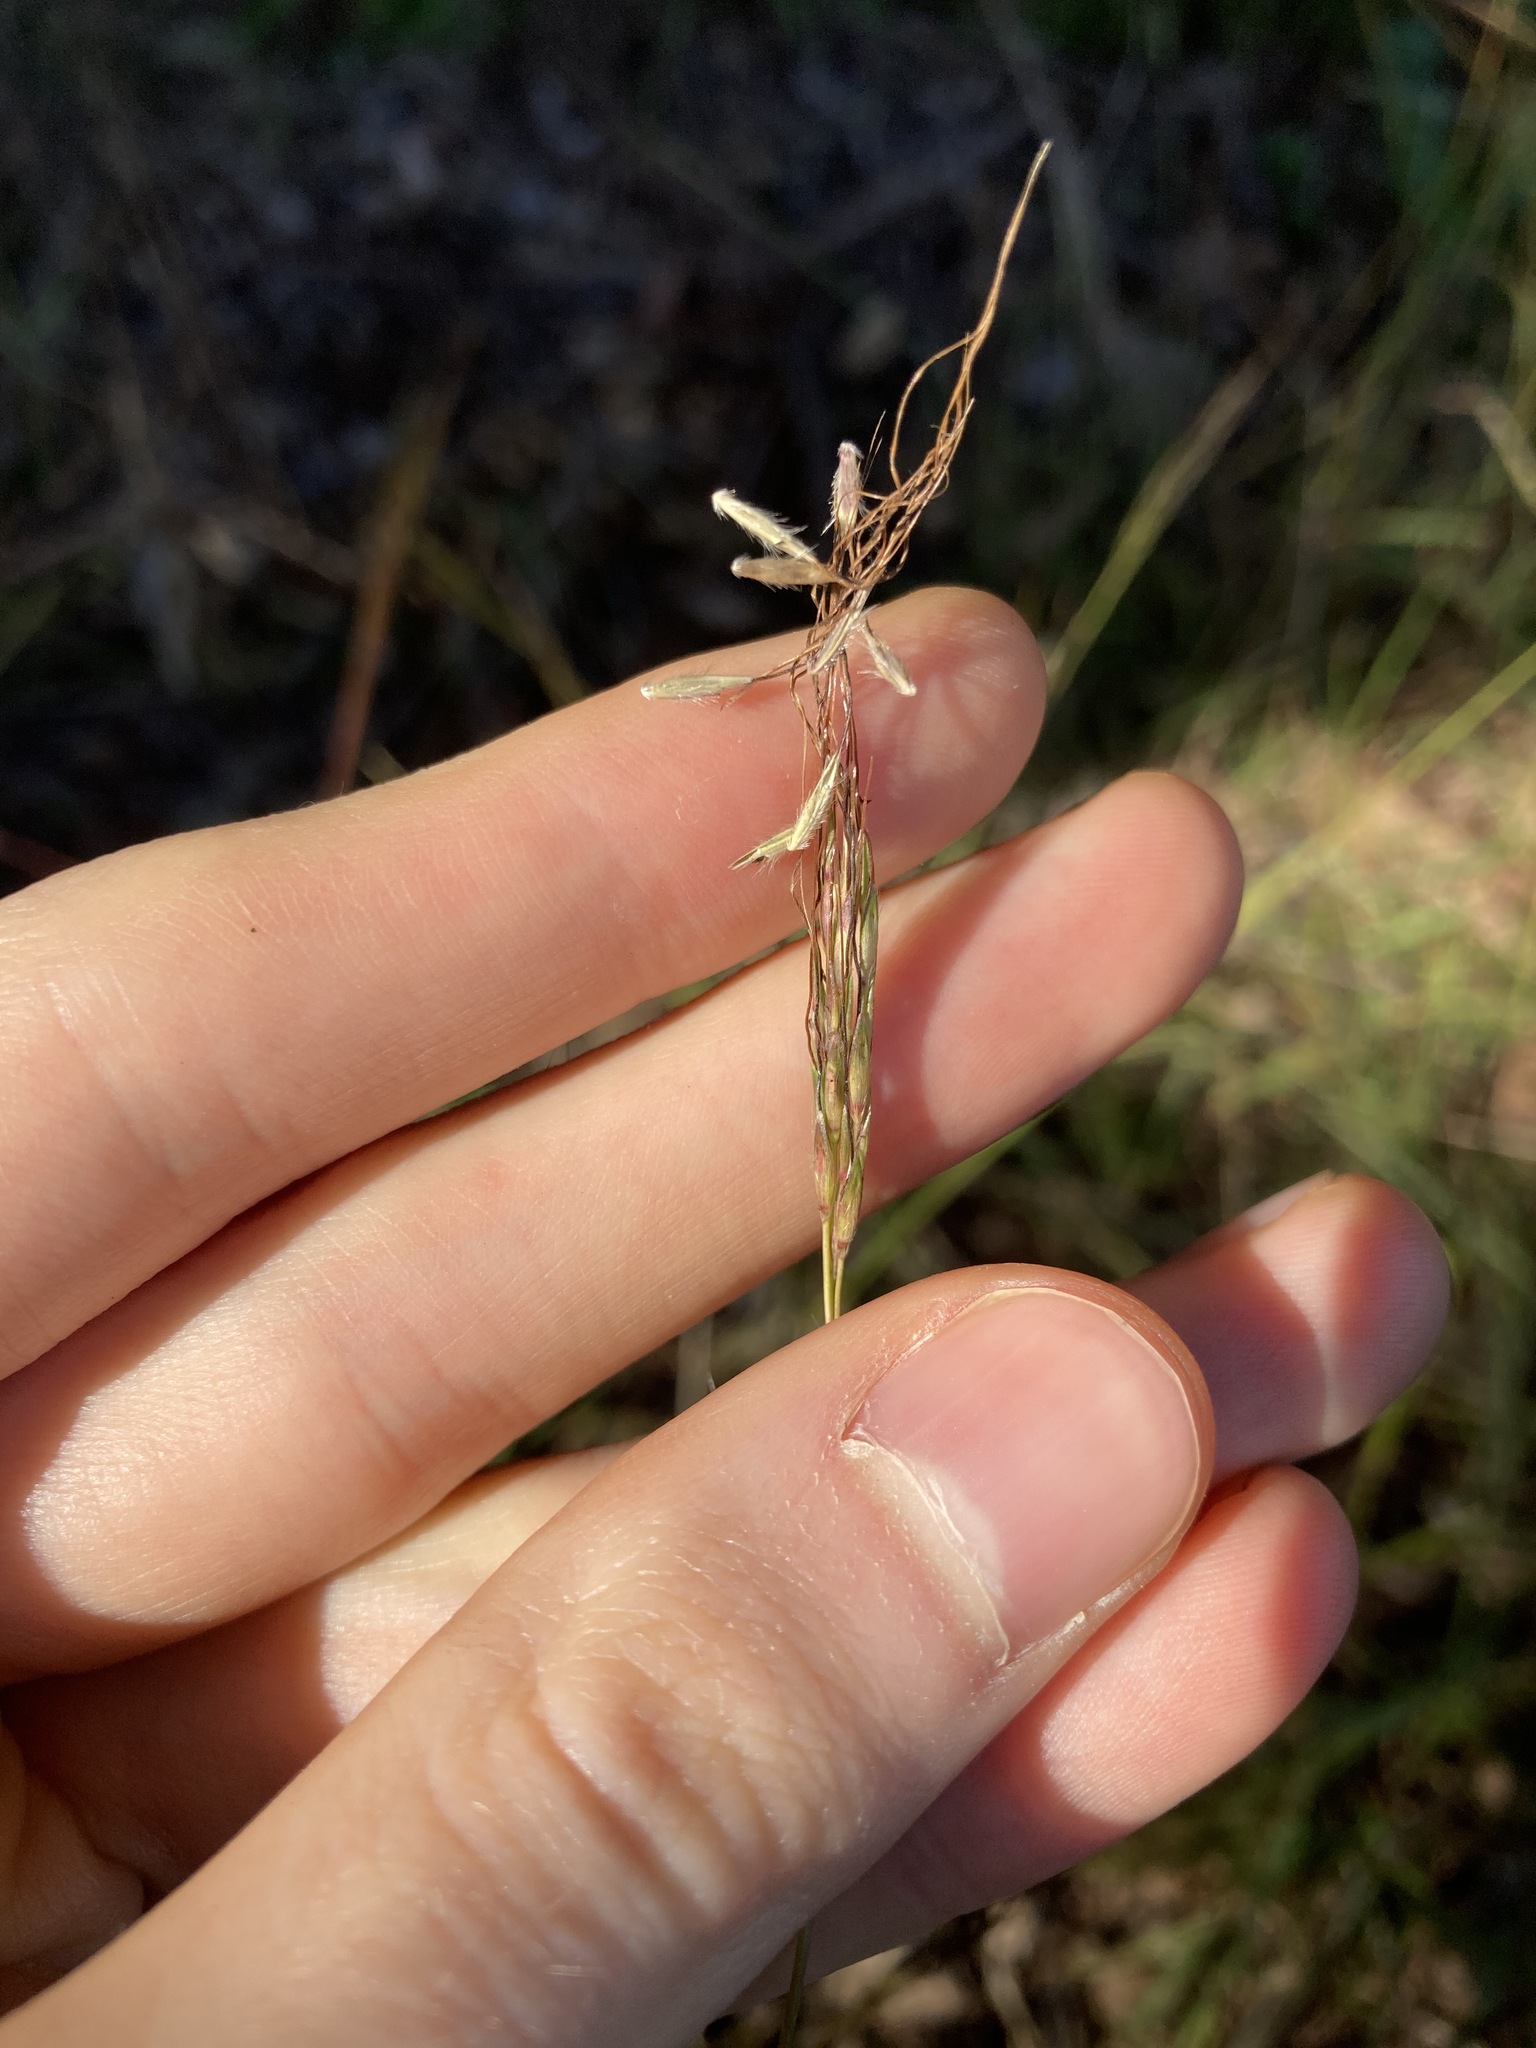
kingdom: Plantae
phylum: Tracheophyta
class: Liliopsida
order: Poales
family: Poaceae
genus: Bothriochloa
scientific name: Bothriochloa macra
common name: Pitted beard grass
